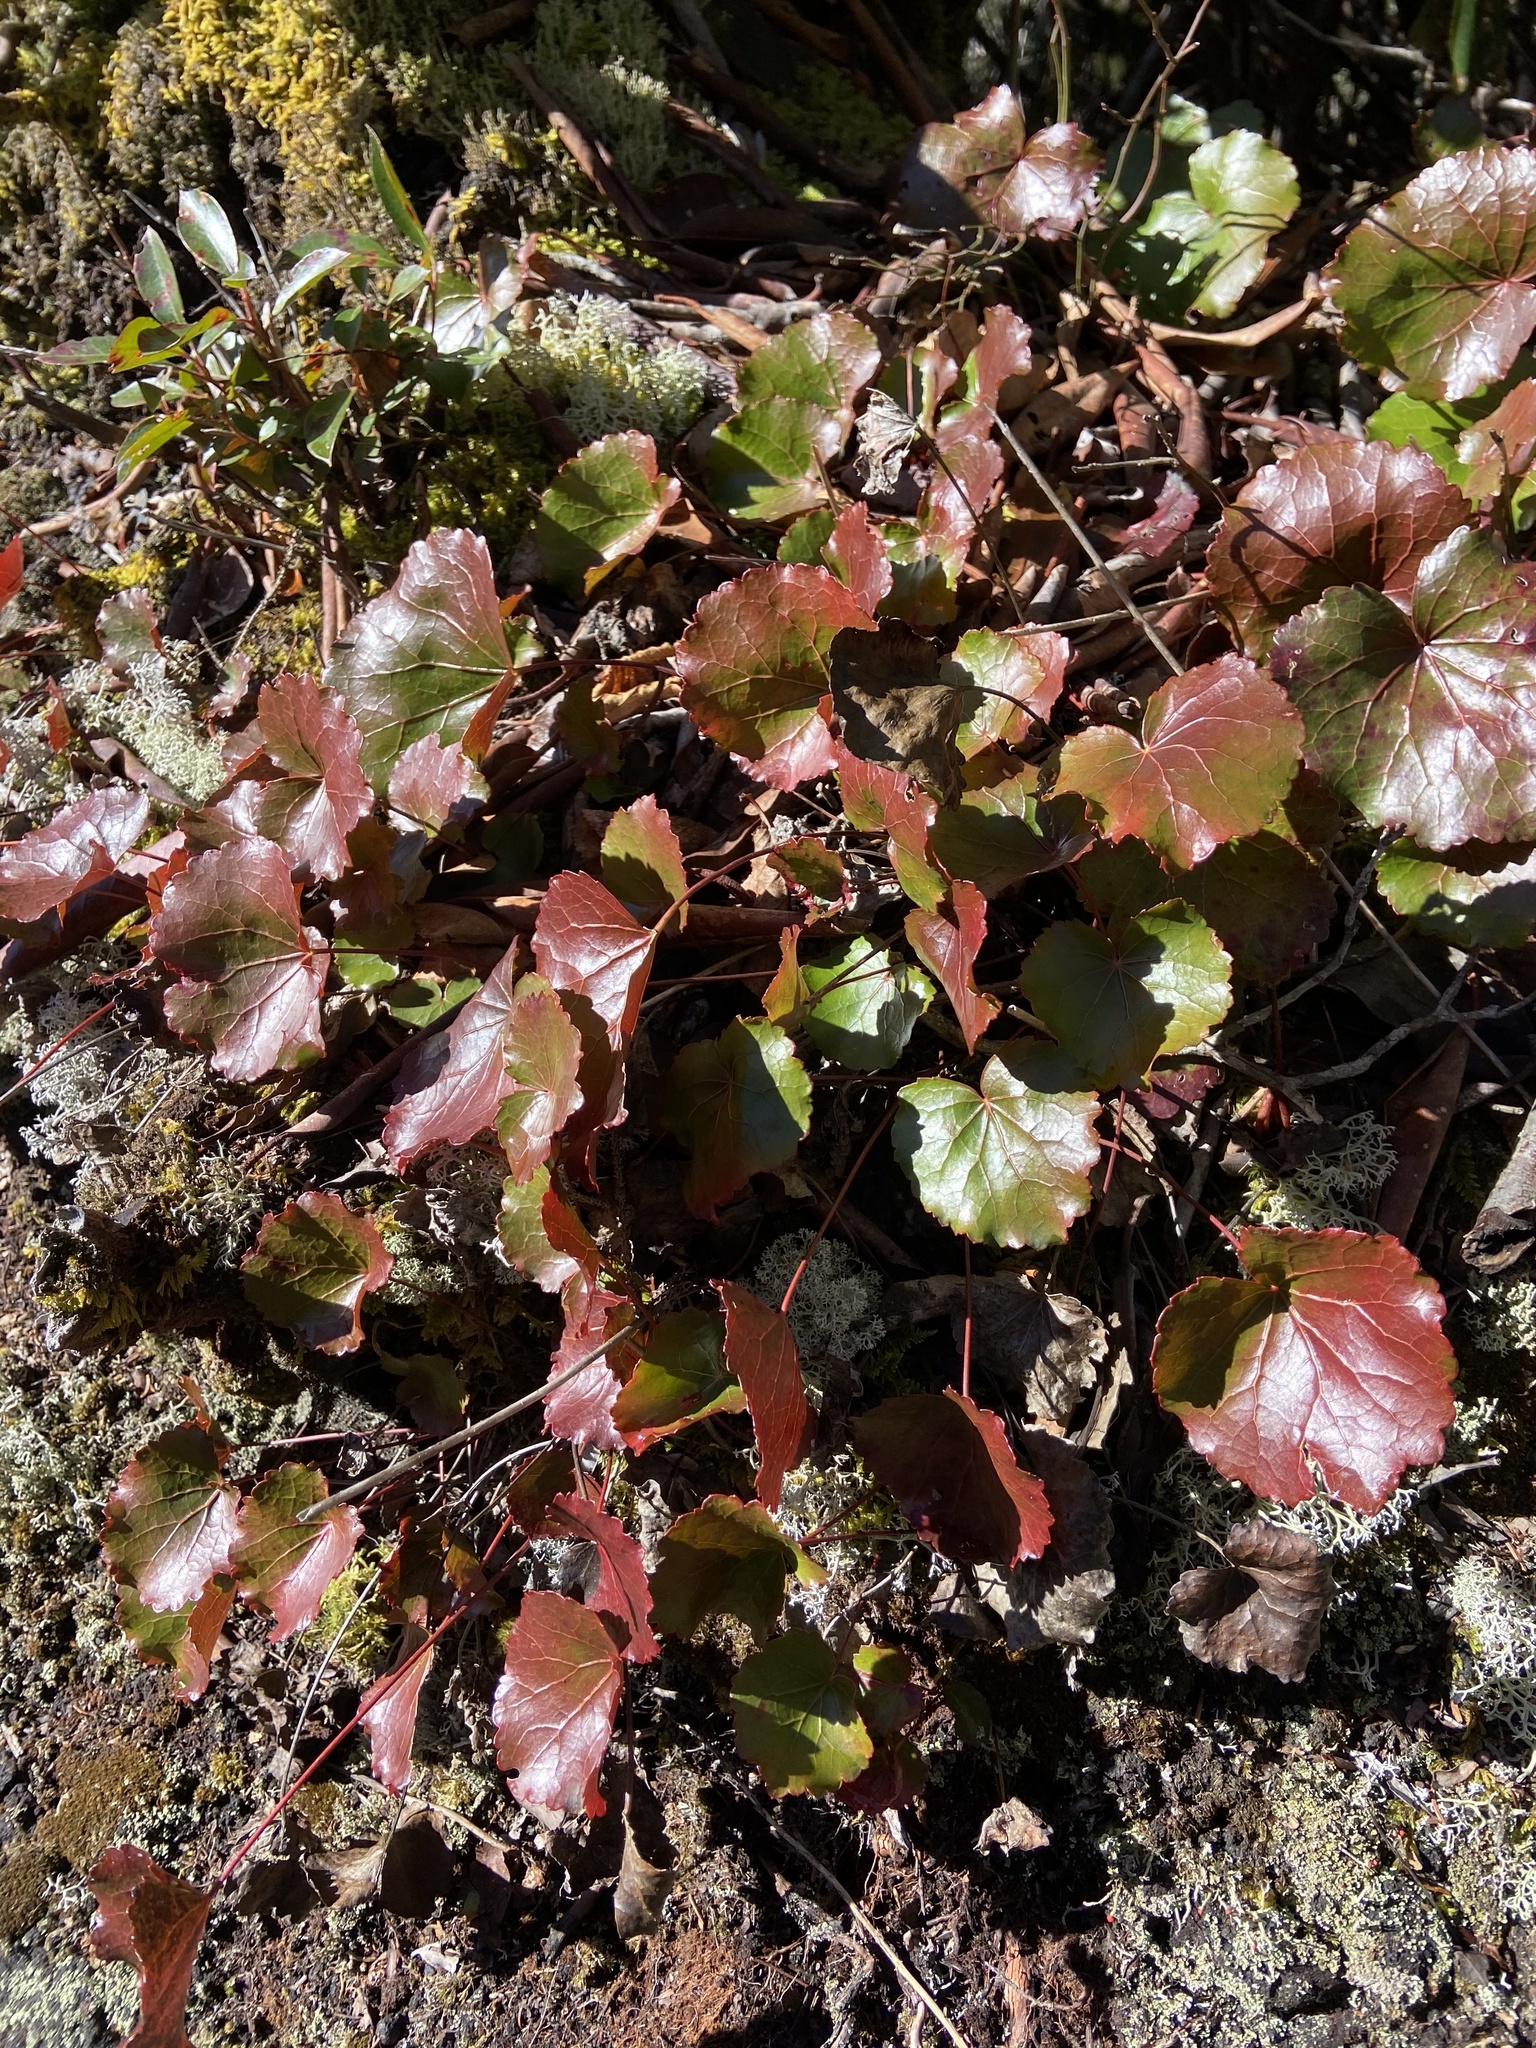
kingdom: Plantae
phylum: Tracheophyta
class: Magnoliopsida
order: Ericales
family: Diapensiaceae
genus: Galax
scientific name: Galax urceolata
